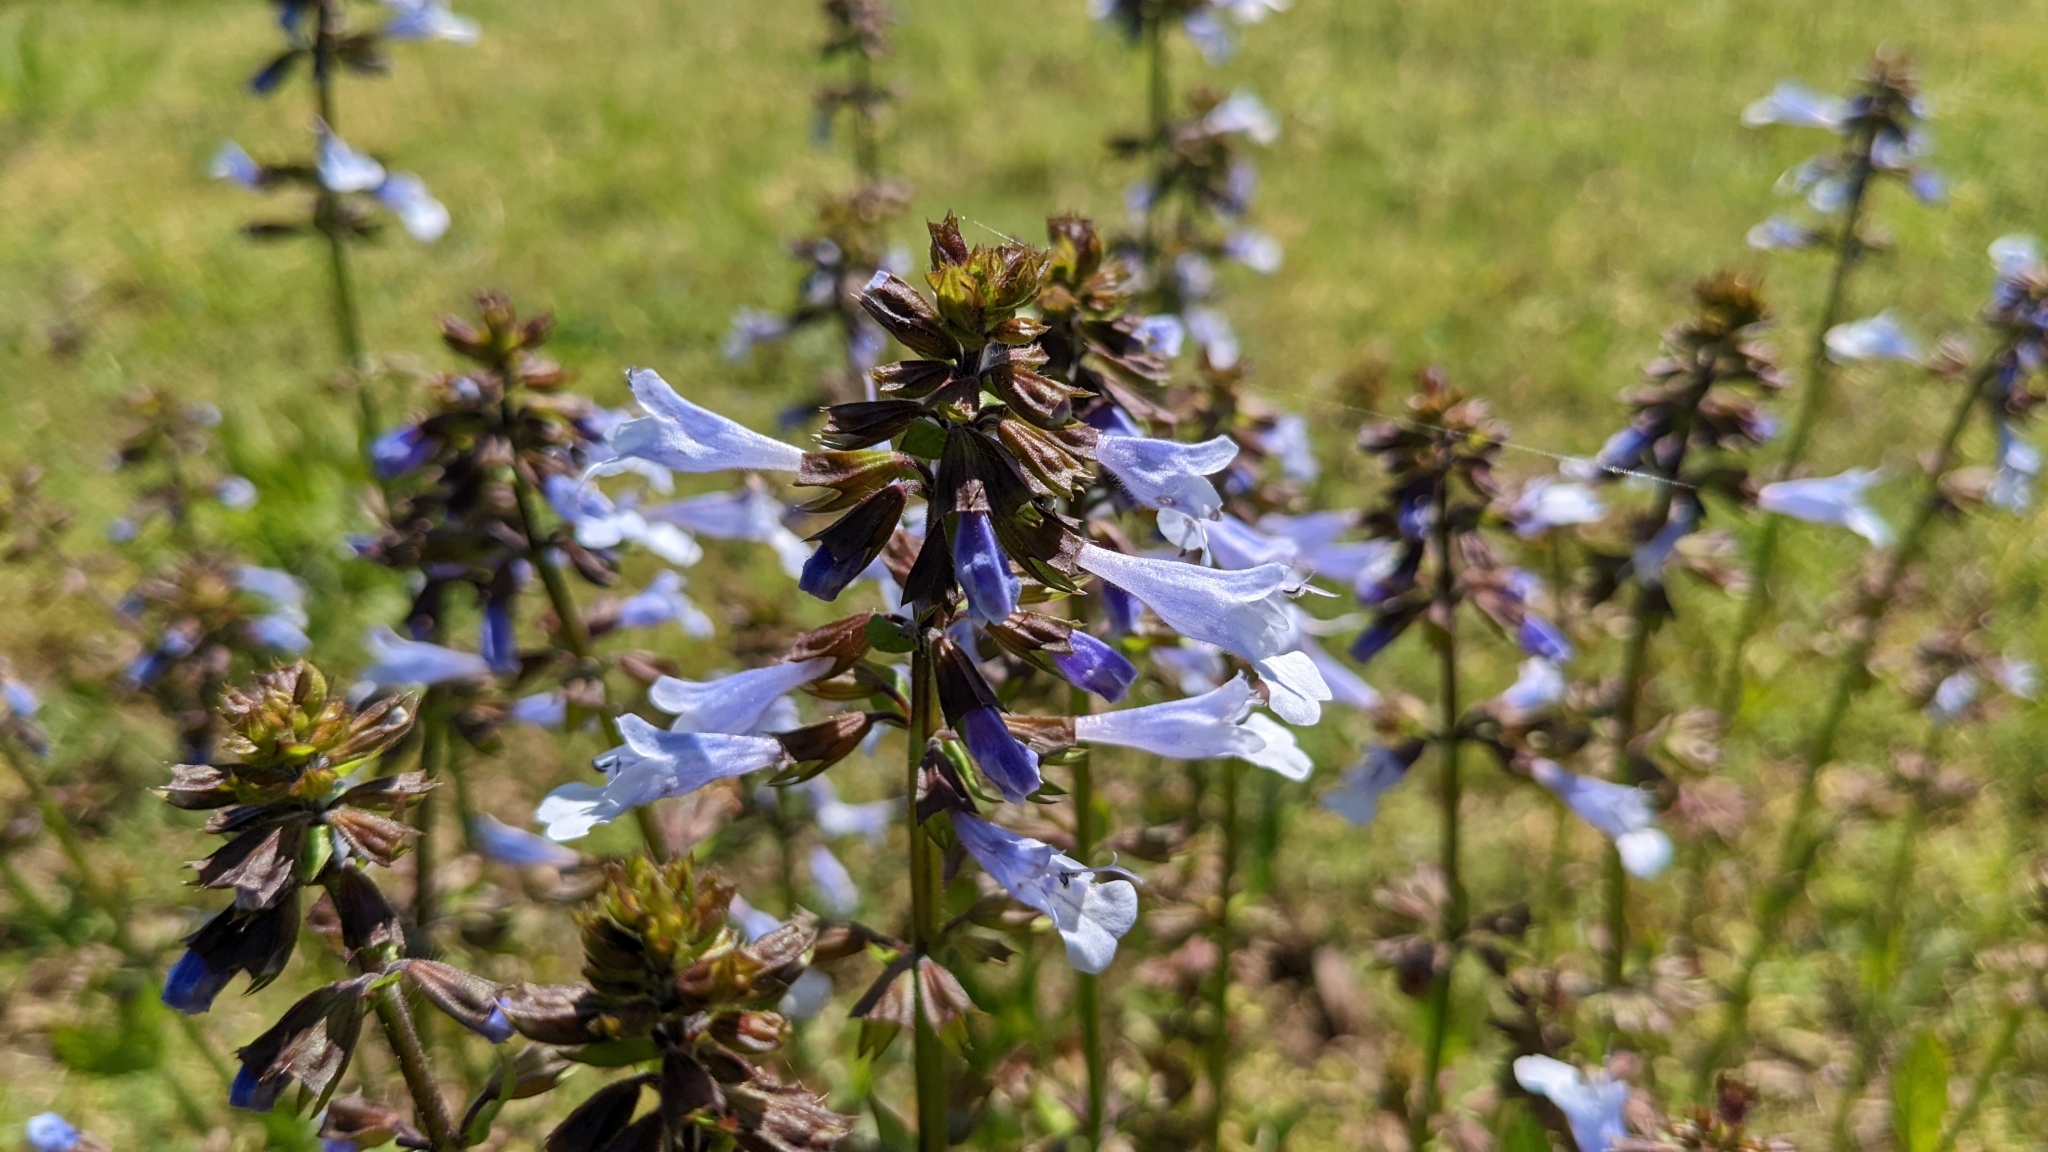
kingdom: Plantae
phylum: Tracheophyta
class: Magnoliopsida
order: Lamiales
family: Lamiaceae
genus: Salvia
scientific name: Salvia lyrata
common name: Cancerweed
